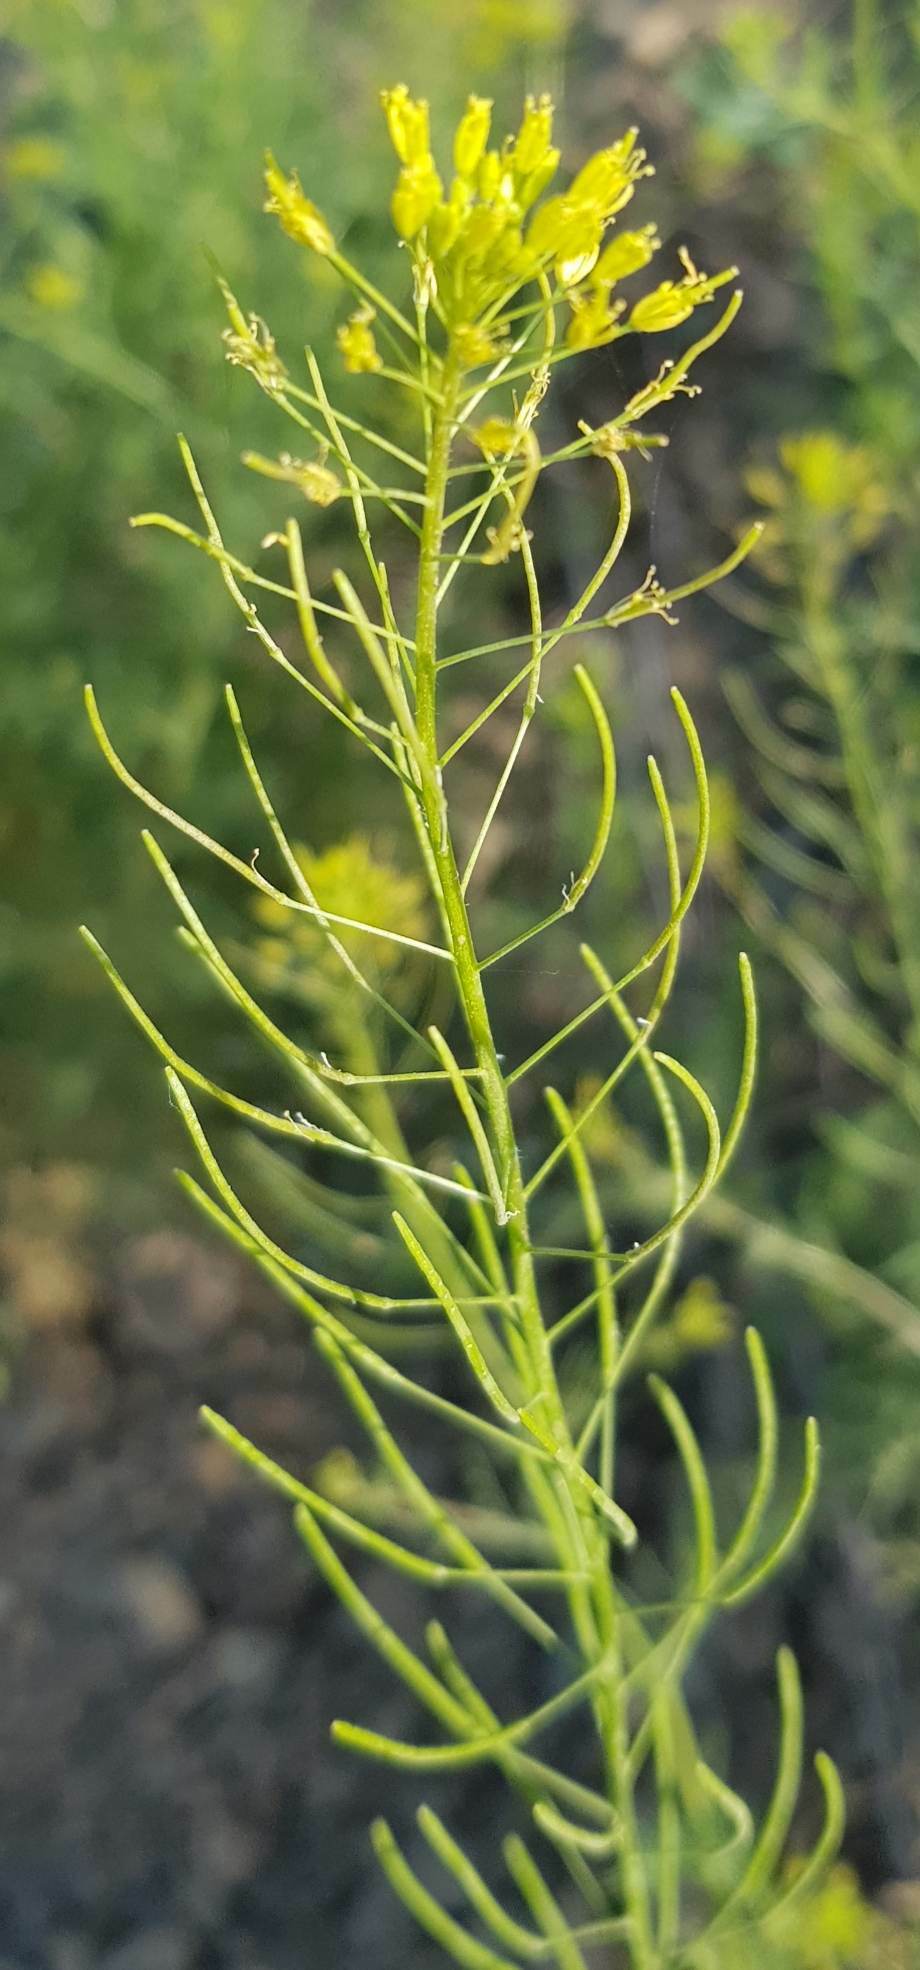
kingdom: Plantae
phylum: Tracheophyta
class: Magnoliopsida
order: Brassicales
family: Brassicaceae
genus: Descurainia
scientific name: Descurainia sophia
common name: Flixweed
